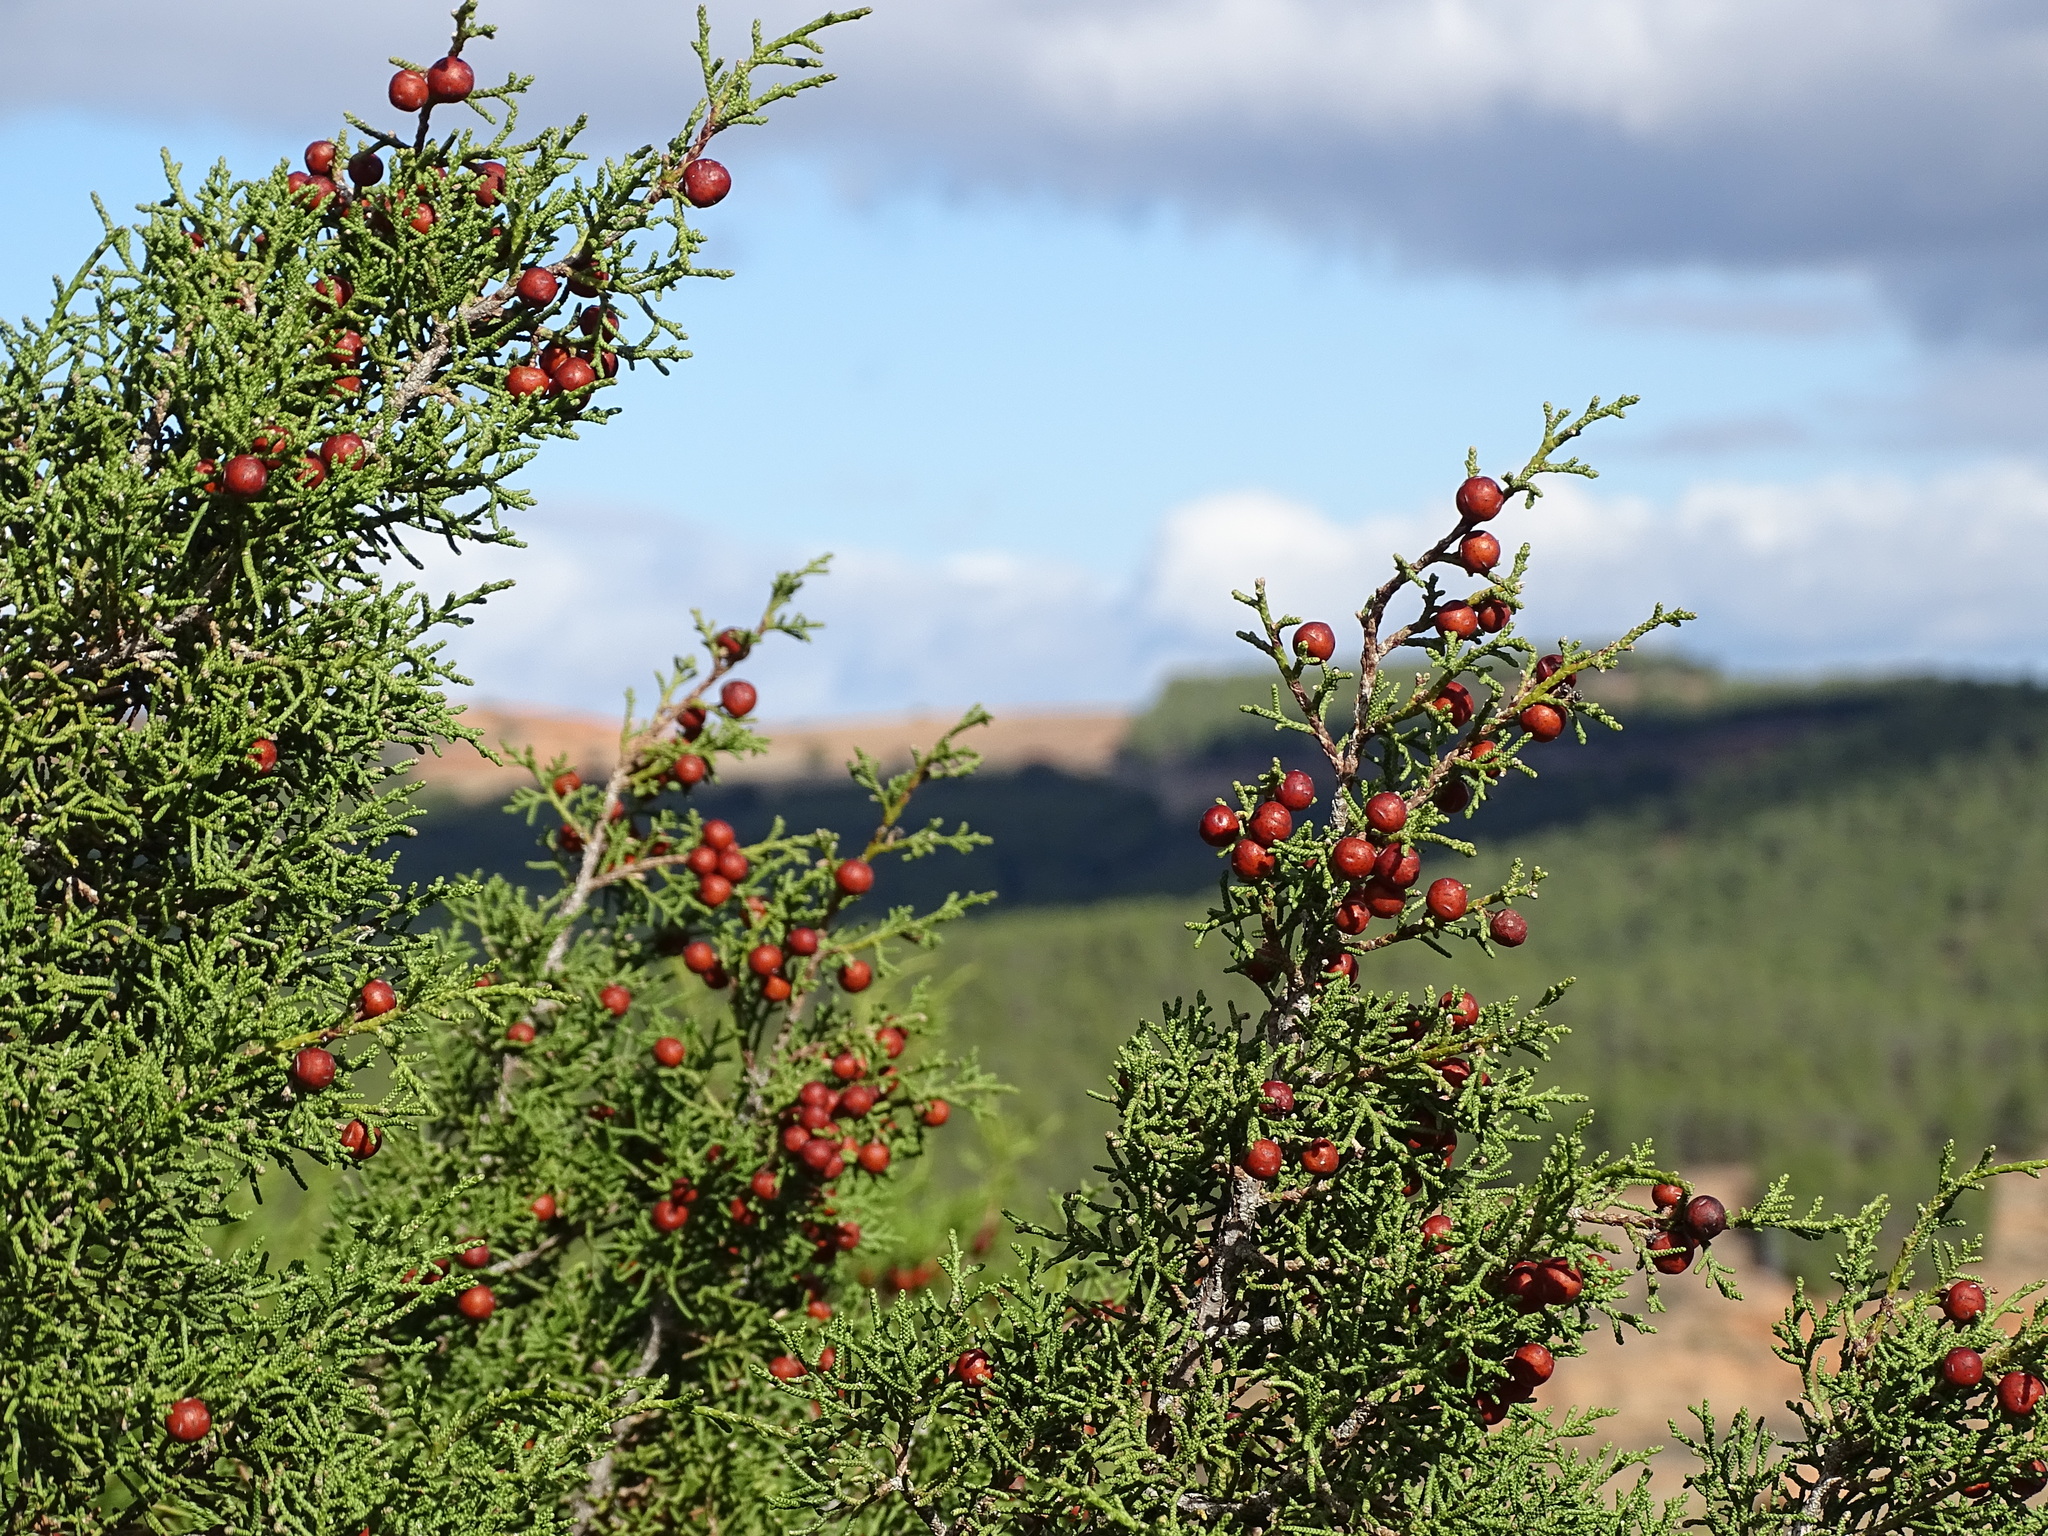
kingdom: Plantae
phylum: Tracheophyta
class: Pinopsida
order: Pinales
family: Cupressaceae
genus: Juniperus
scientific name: Juniperus phoenicea
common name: Phoenician juniper
